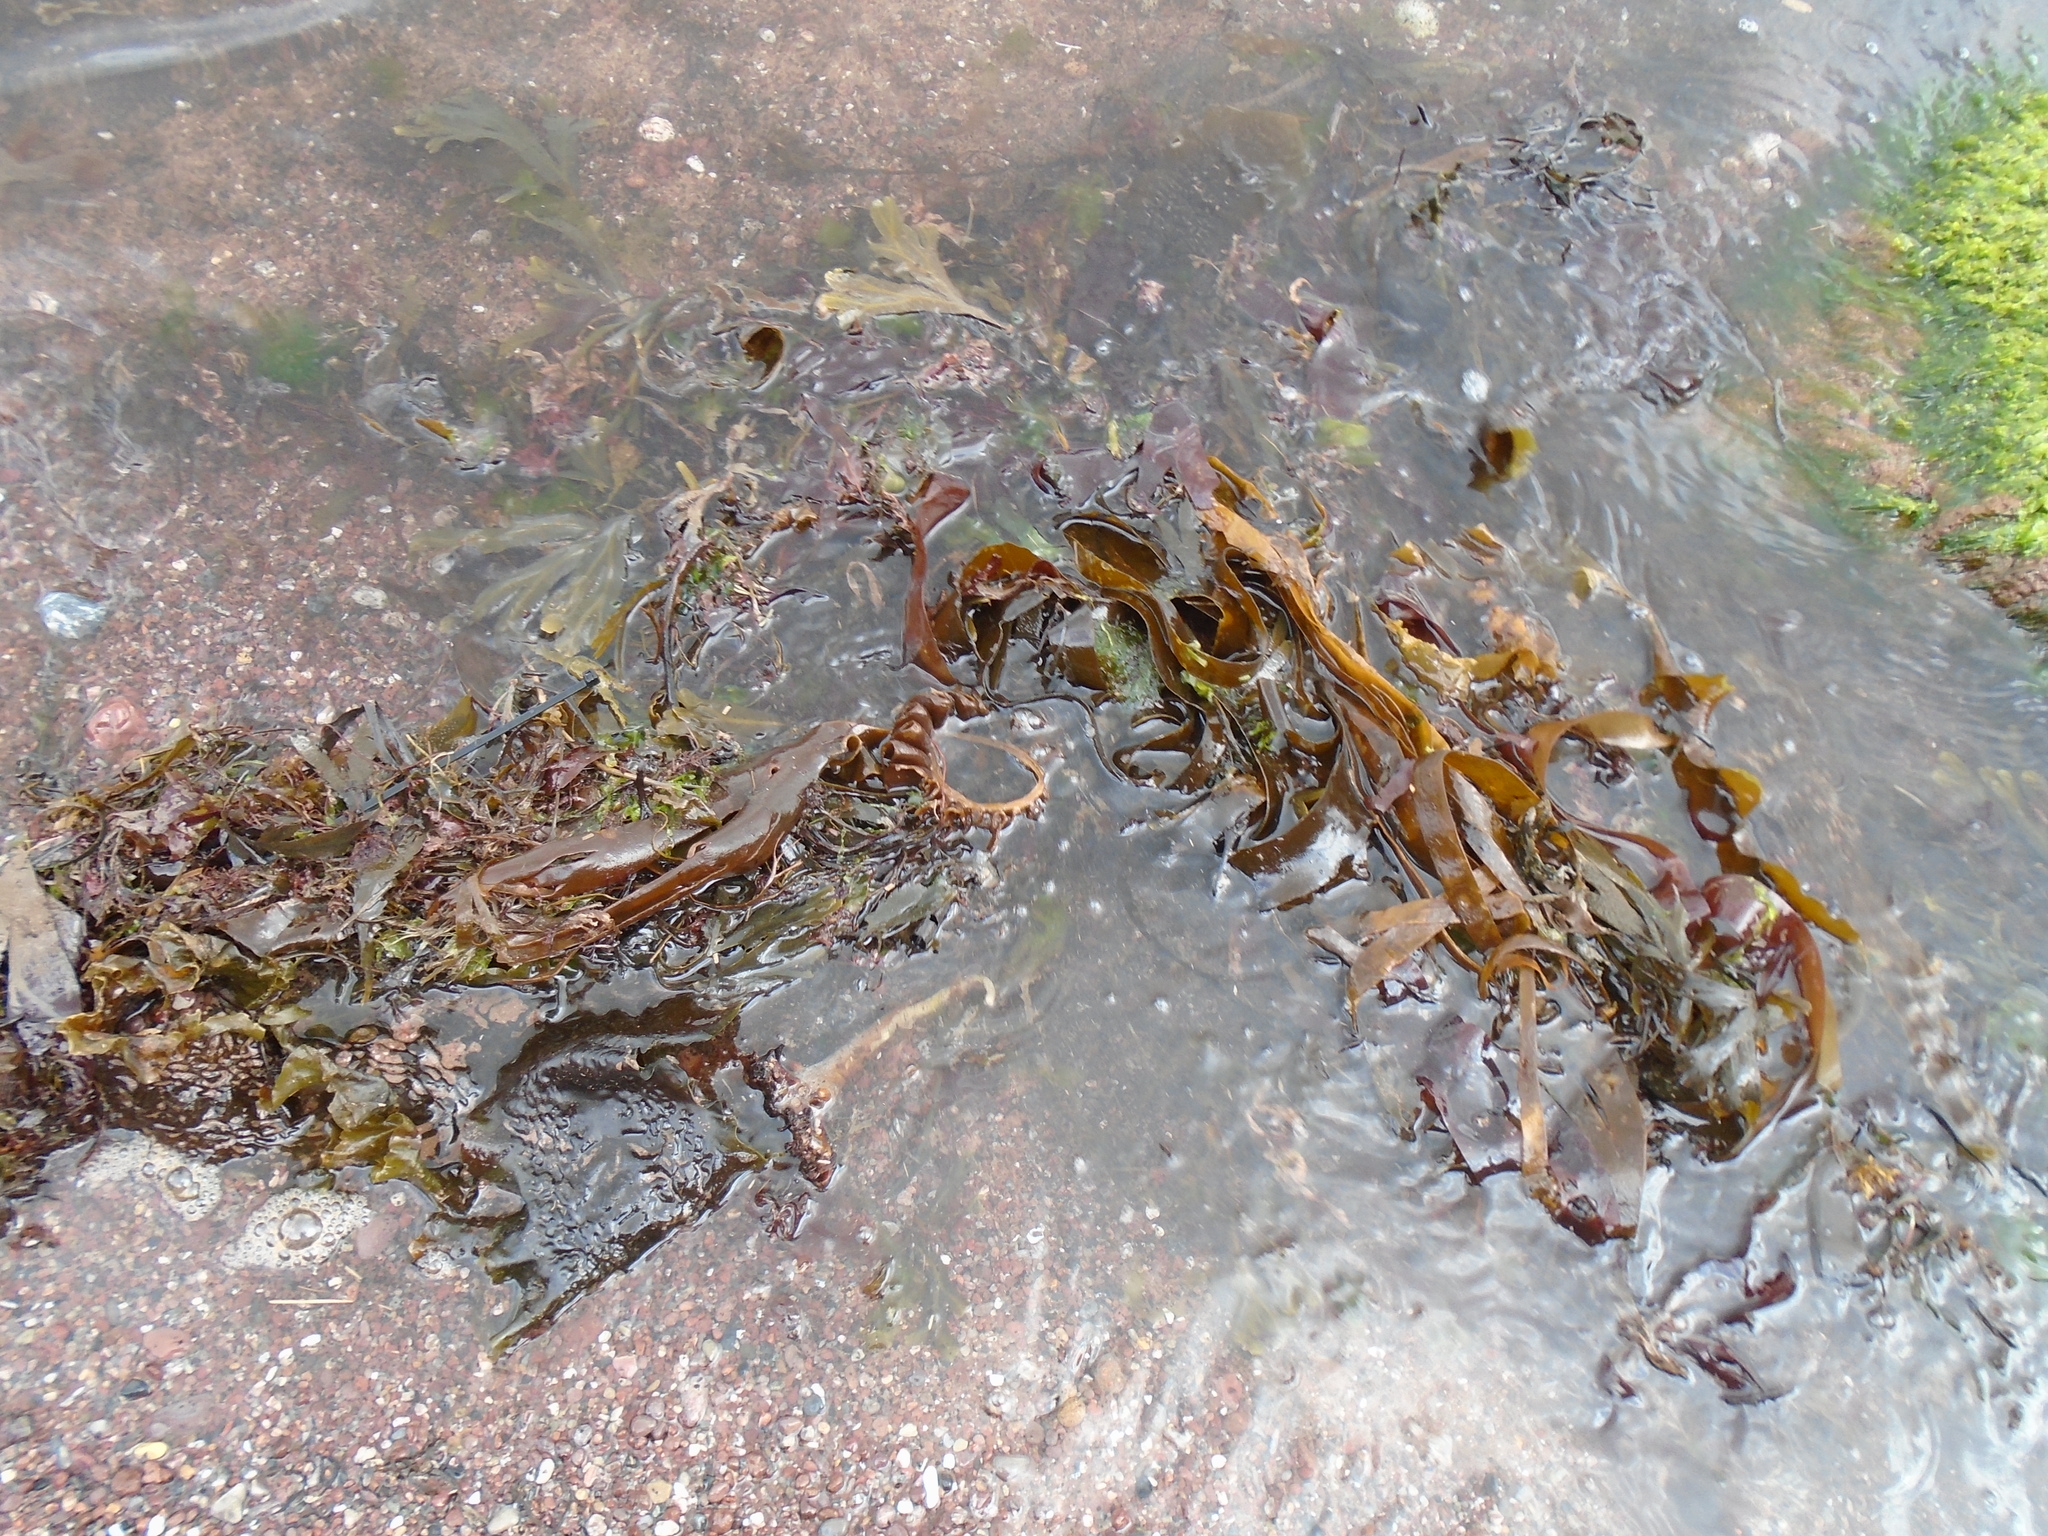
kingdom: Chromista
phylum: Ochrophyta
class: Phaeophyceae
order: Tilopteridales
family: Phyllariaceae
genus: Saccorhiza
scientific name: Saccorhiza polyschides
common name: Furbelows
